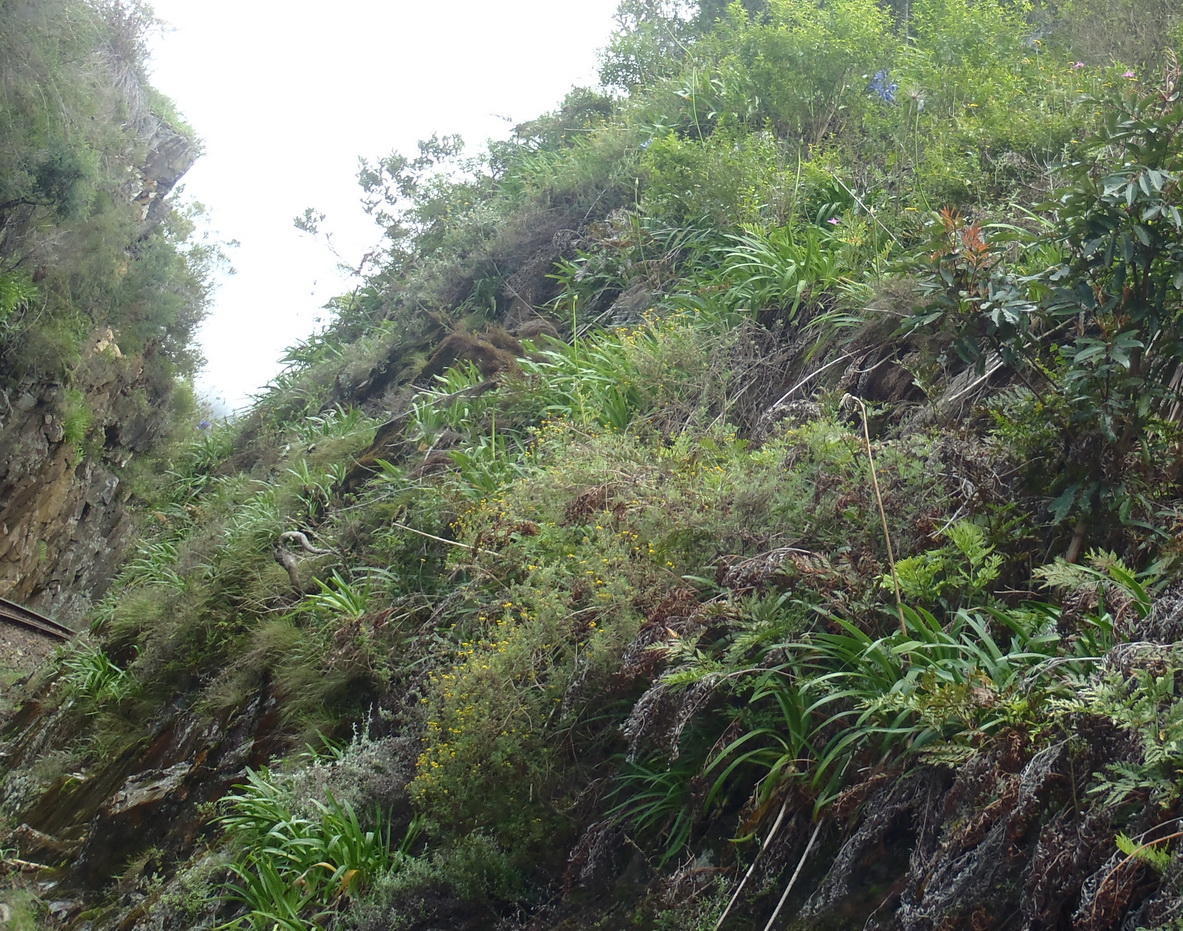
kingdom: Plantae
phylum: Tracheophyta
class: Liliopsida
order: Asparagales
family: Amaryllidaceae
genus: Agapanthus
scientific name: Agapanthus praecox
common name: African-lily
